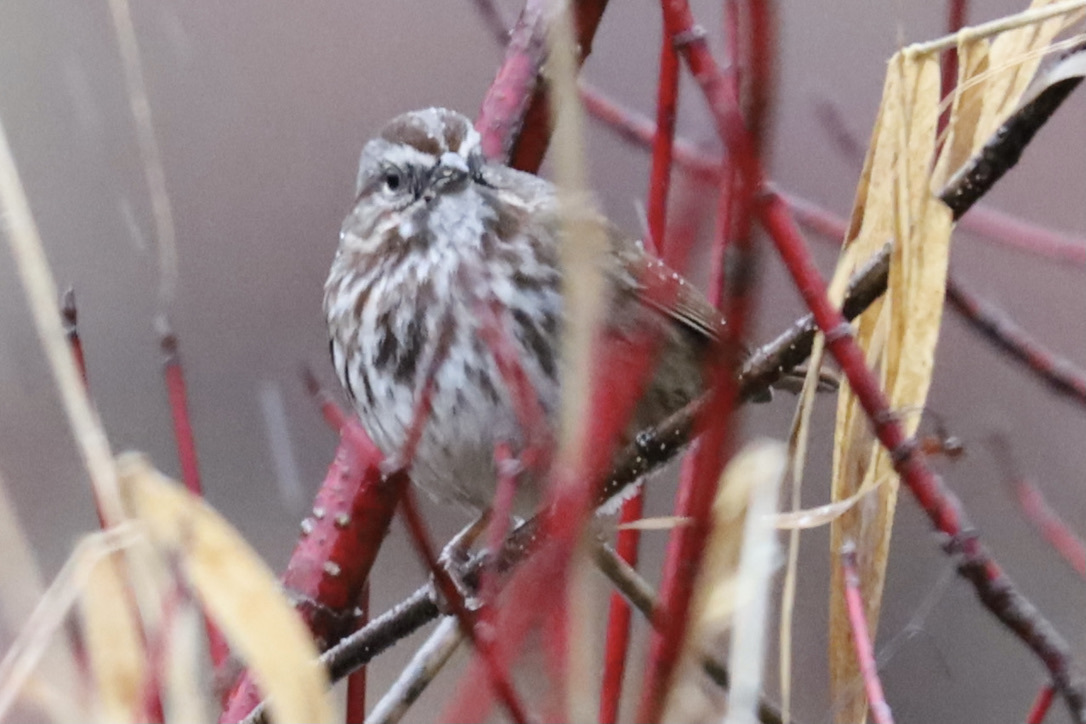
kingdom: Animalia
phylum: Chordata
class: Aves
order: Passeriformes
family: Passerellidae
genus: Melospiza
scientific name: Melospiza melodia
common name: Song sparrow
